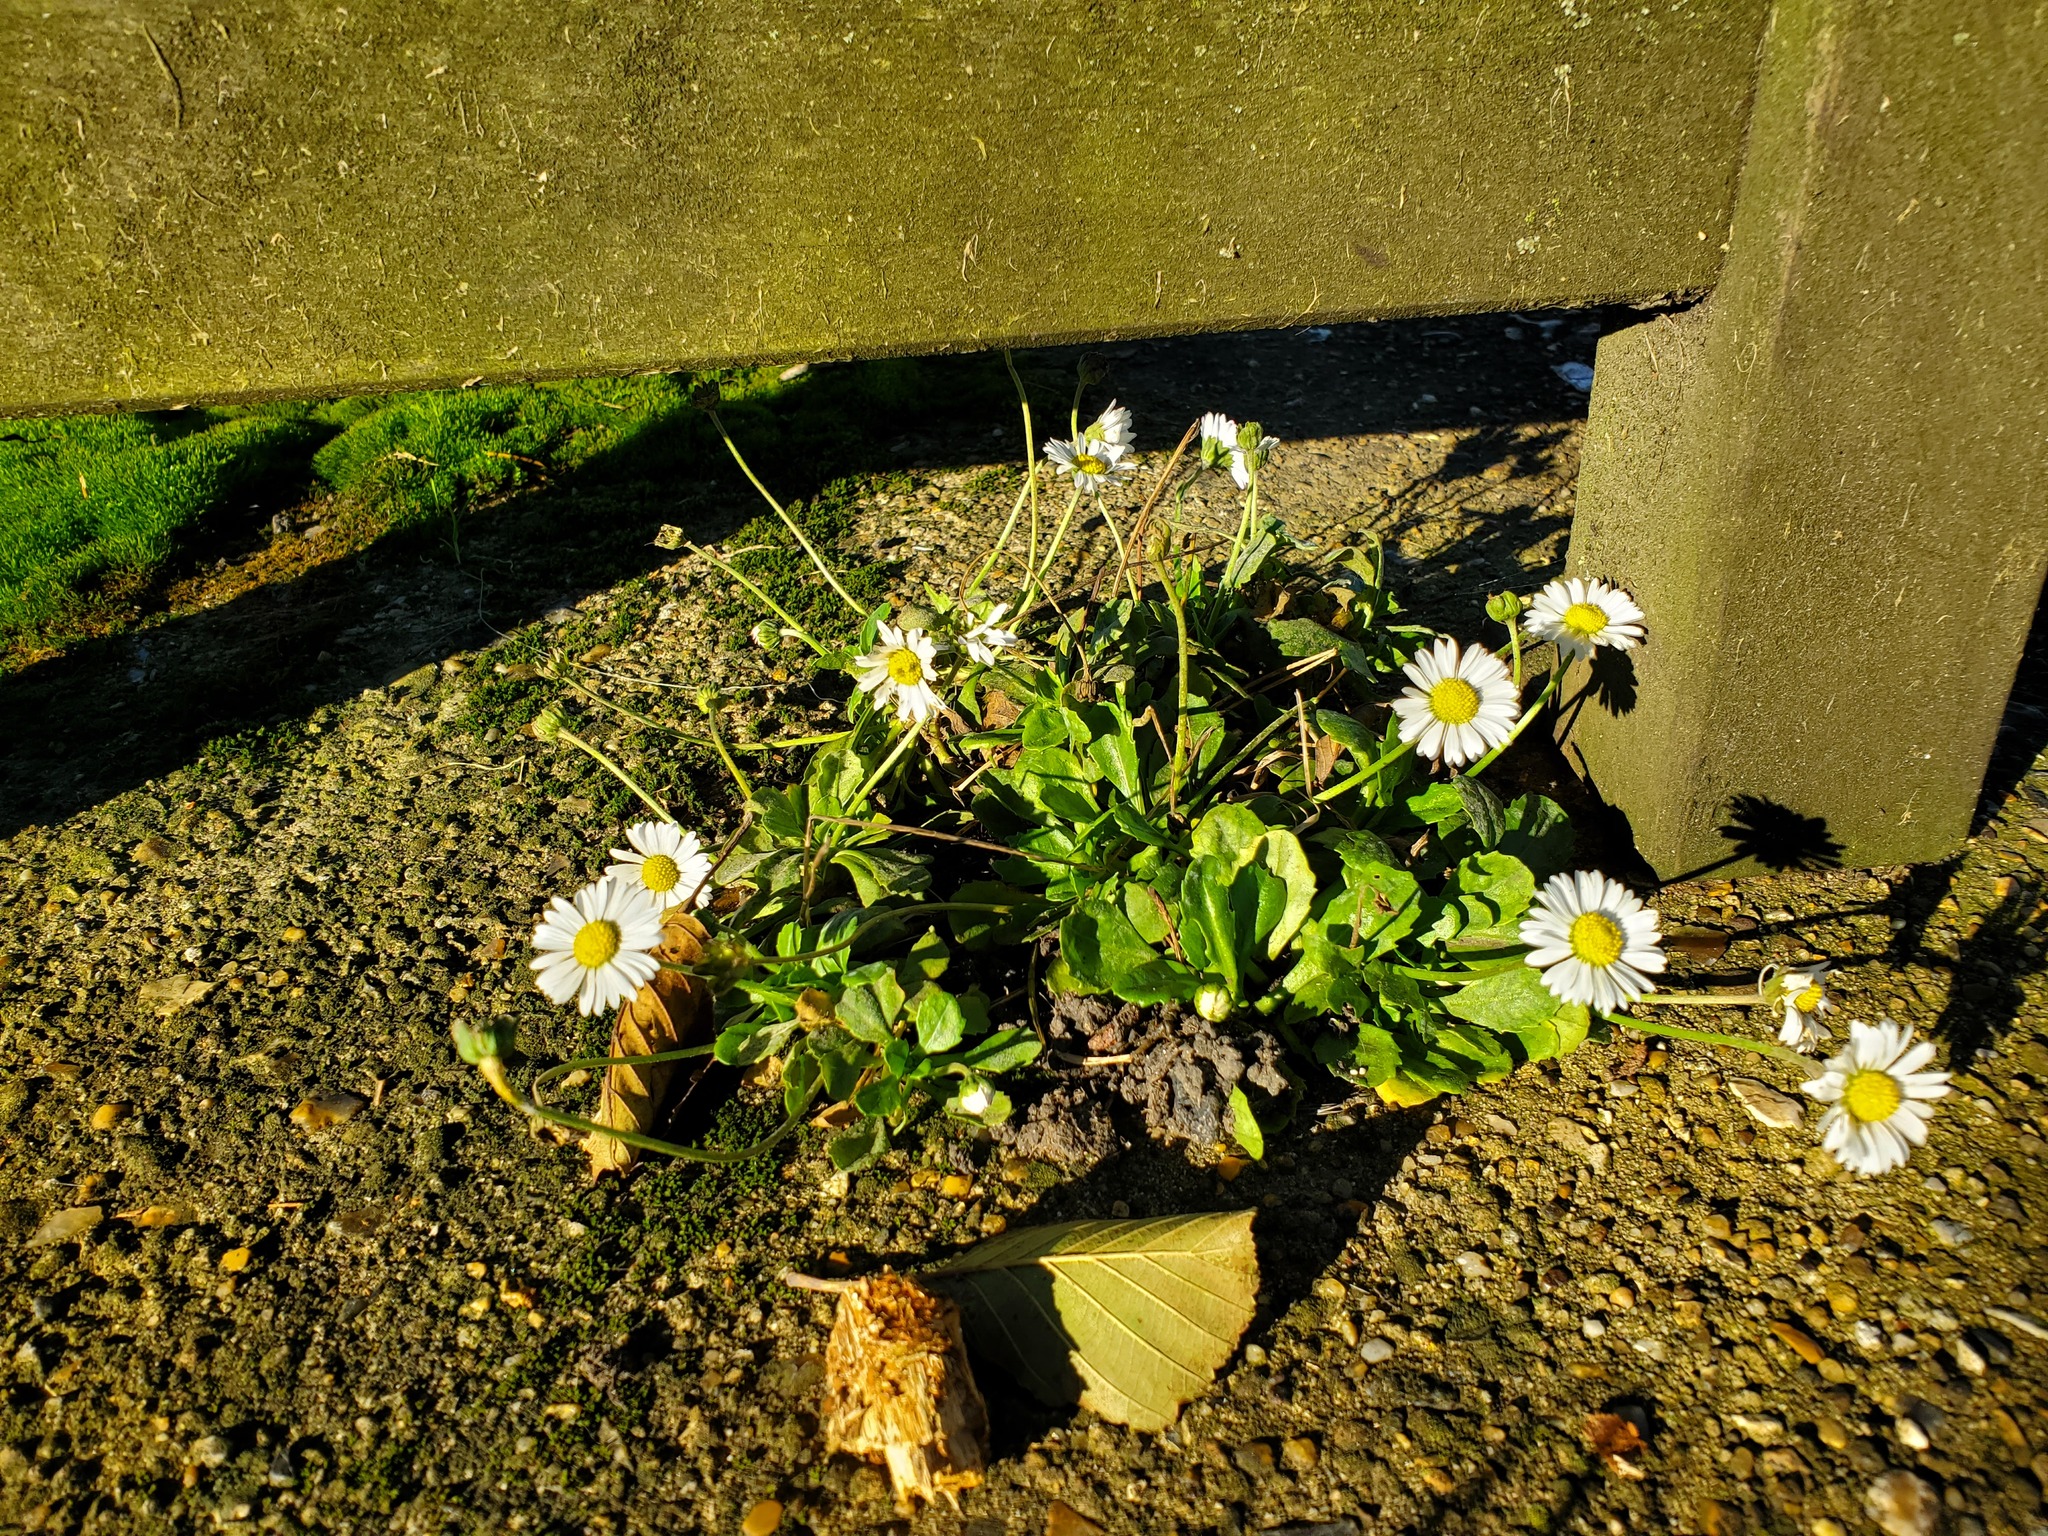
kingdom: Plantae
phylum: Tracheophyta
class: Magnoliopsida
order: Asterales
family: Asteraceae
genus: Bellis
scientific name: Bellis perennis
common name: Lawndaisy
